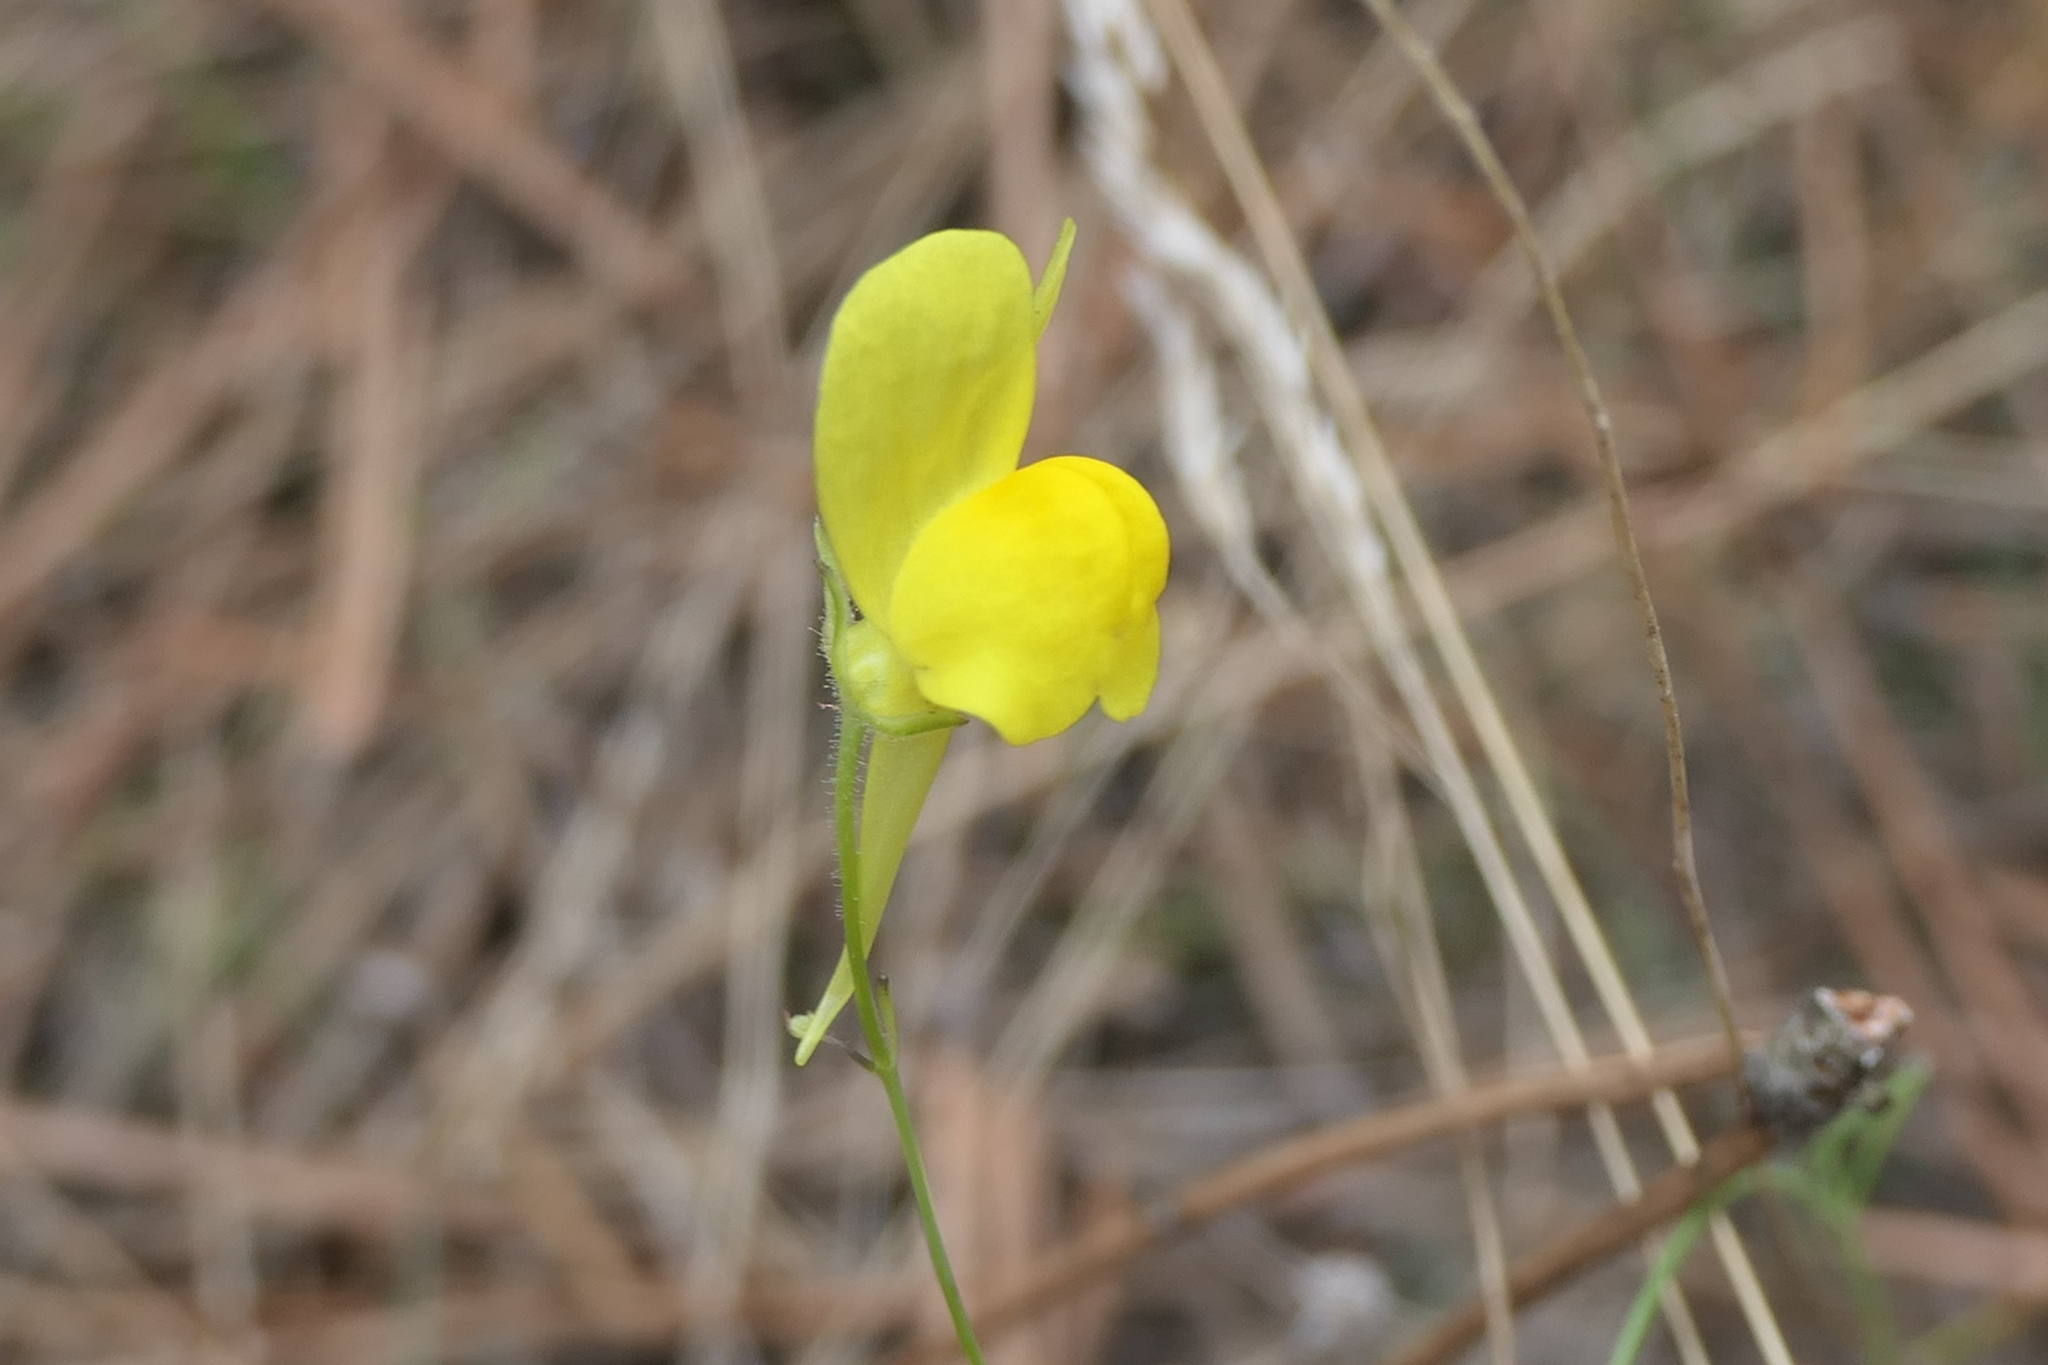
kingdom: Plantae
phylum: Tracheophyta
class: Magnoliopsida
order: Lamiales
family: Plantaginaceae
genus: Linaria
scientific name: Linaria spartea
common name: Ballast toadflax
